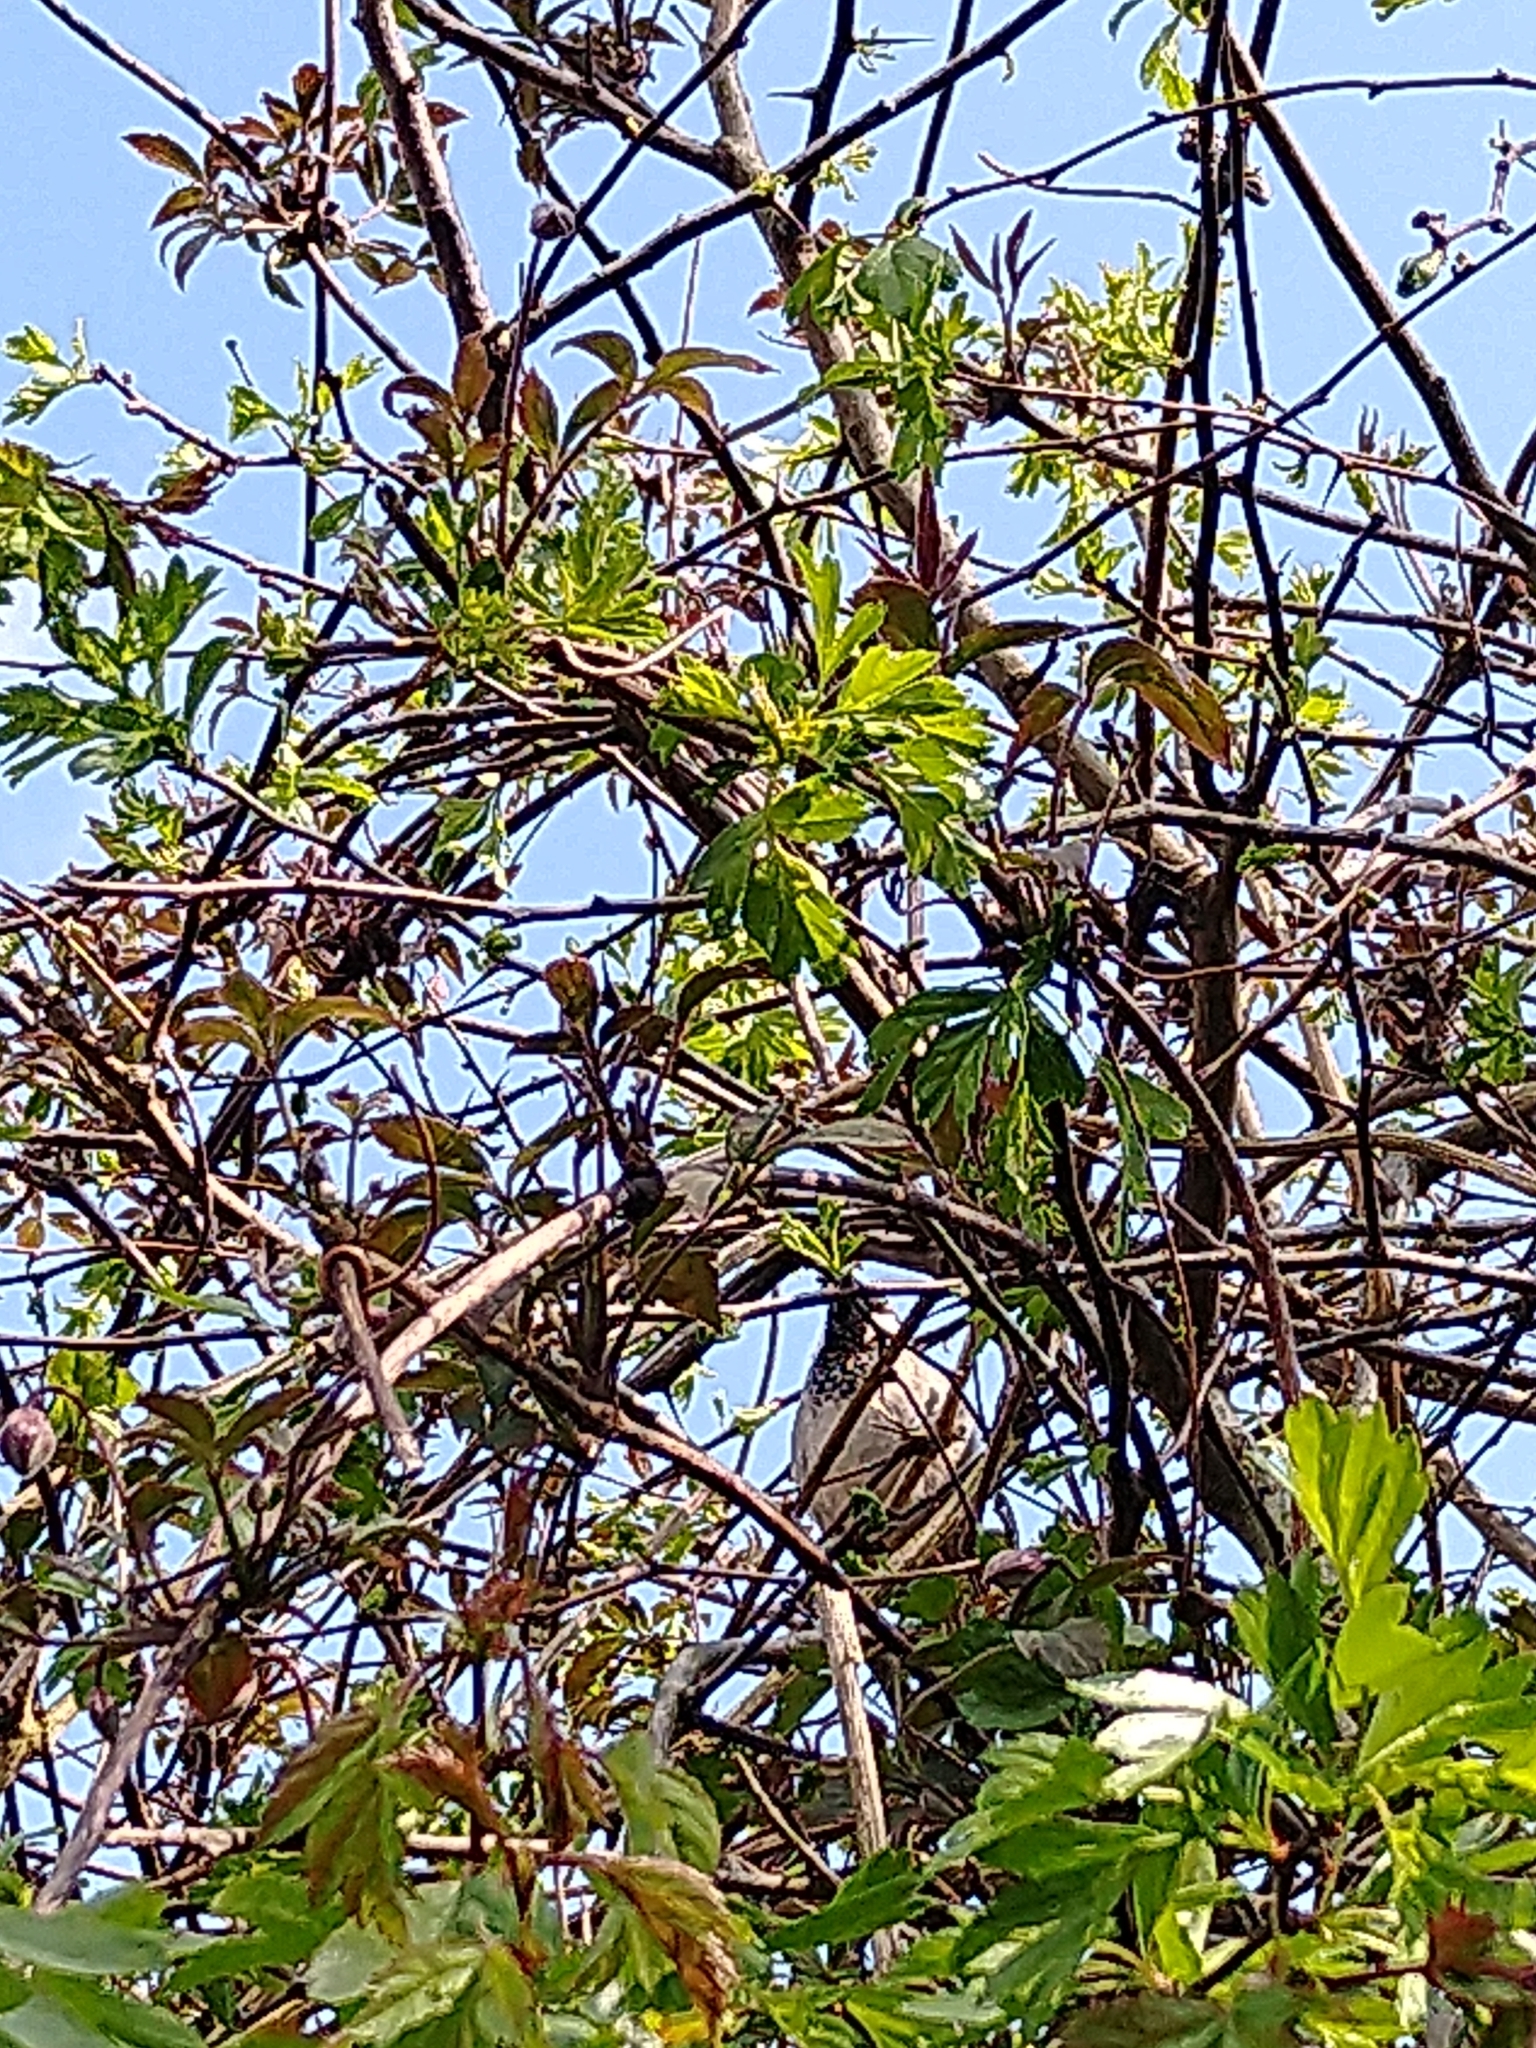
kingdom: Animalia
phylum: Chordata
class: Aves
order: Passeriformes
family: Passeridae
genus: Passer
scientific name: Passer domesticus
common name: House sparrow
